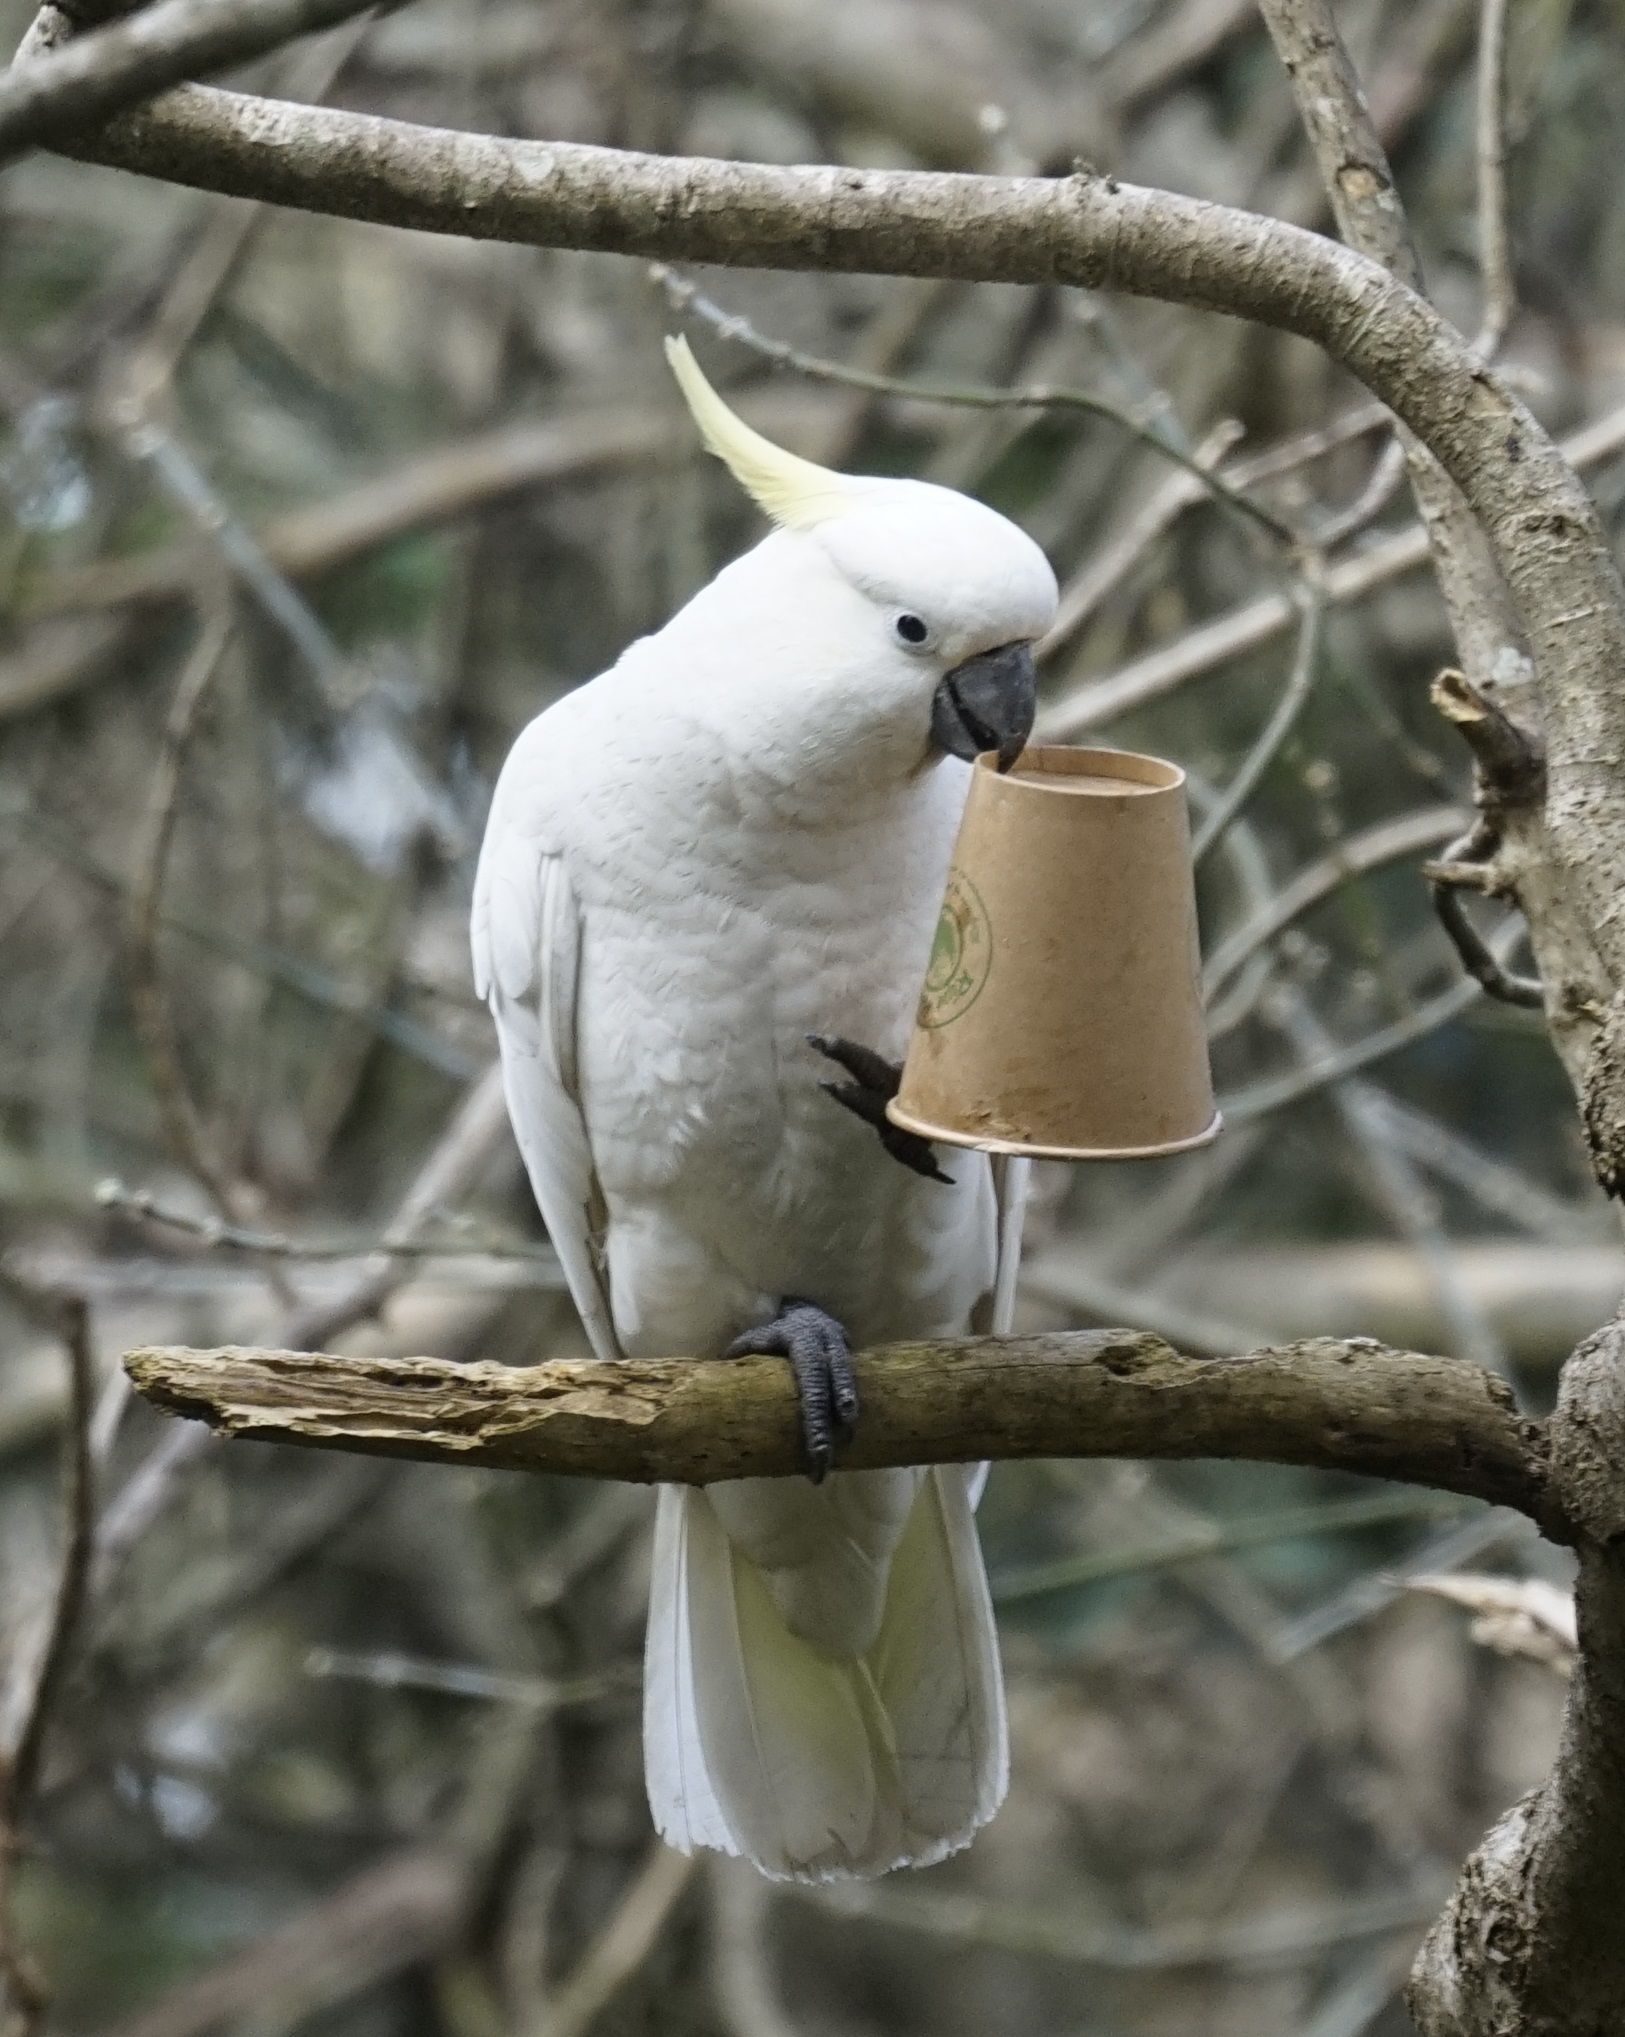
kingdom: Animalia
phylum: Chordata
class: Aves
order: Psittaciformes
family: Psittacidae
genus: Cacatua
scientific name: Cacatua galerita
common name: Sulphur-crested cockatoo
